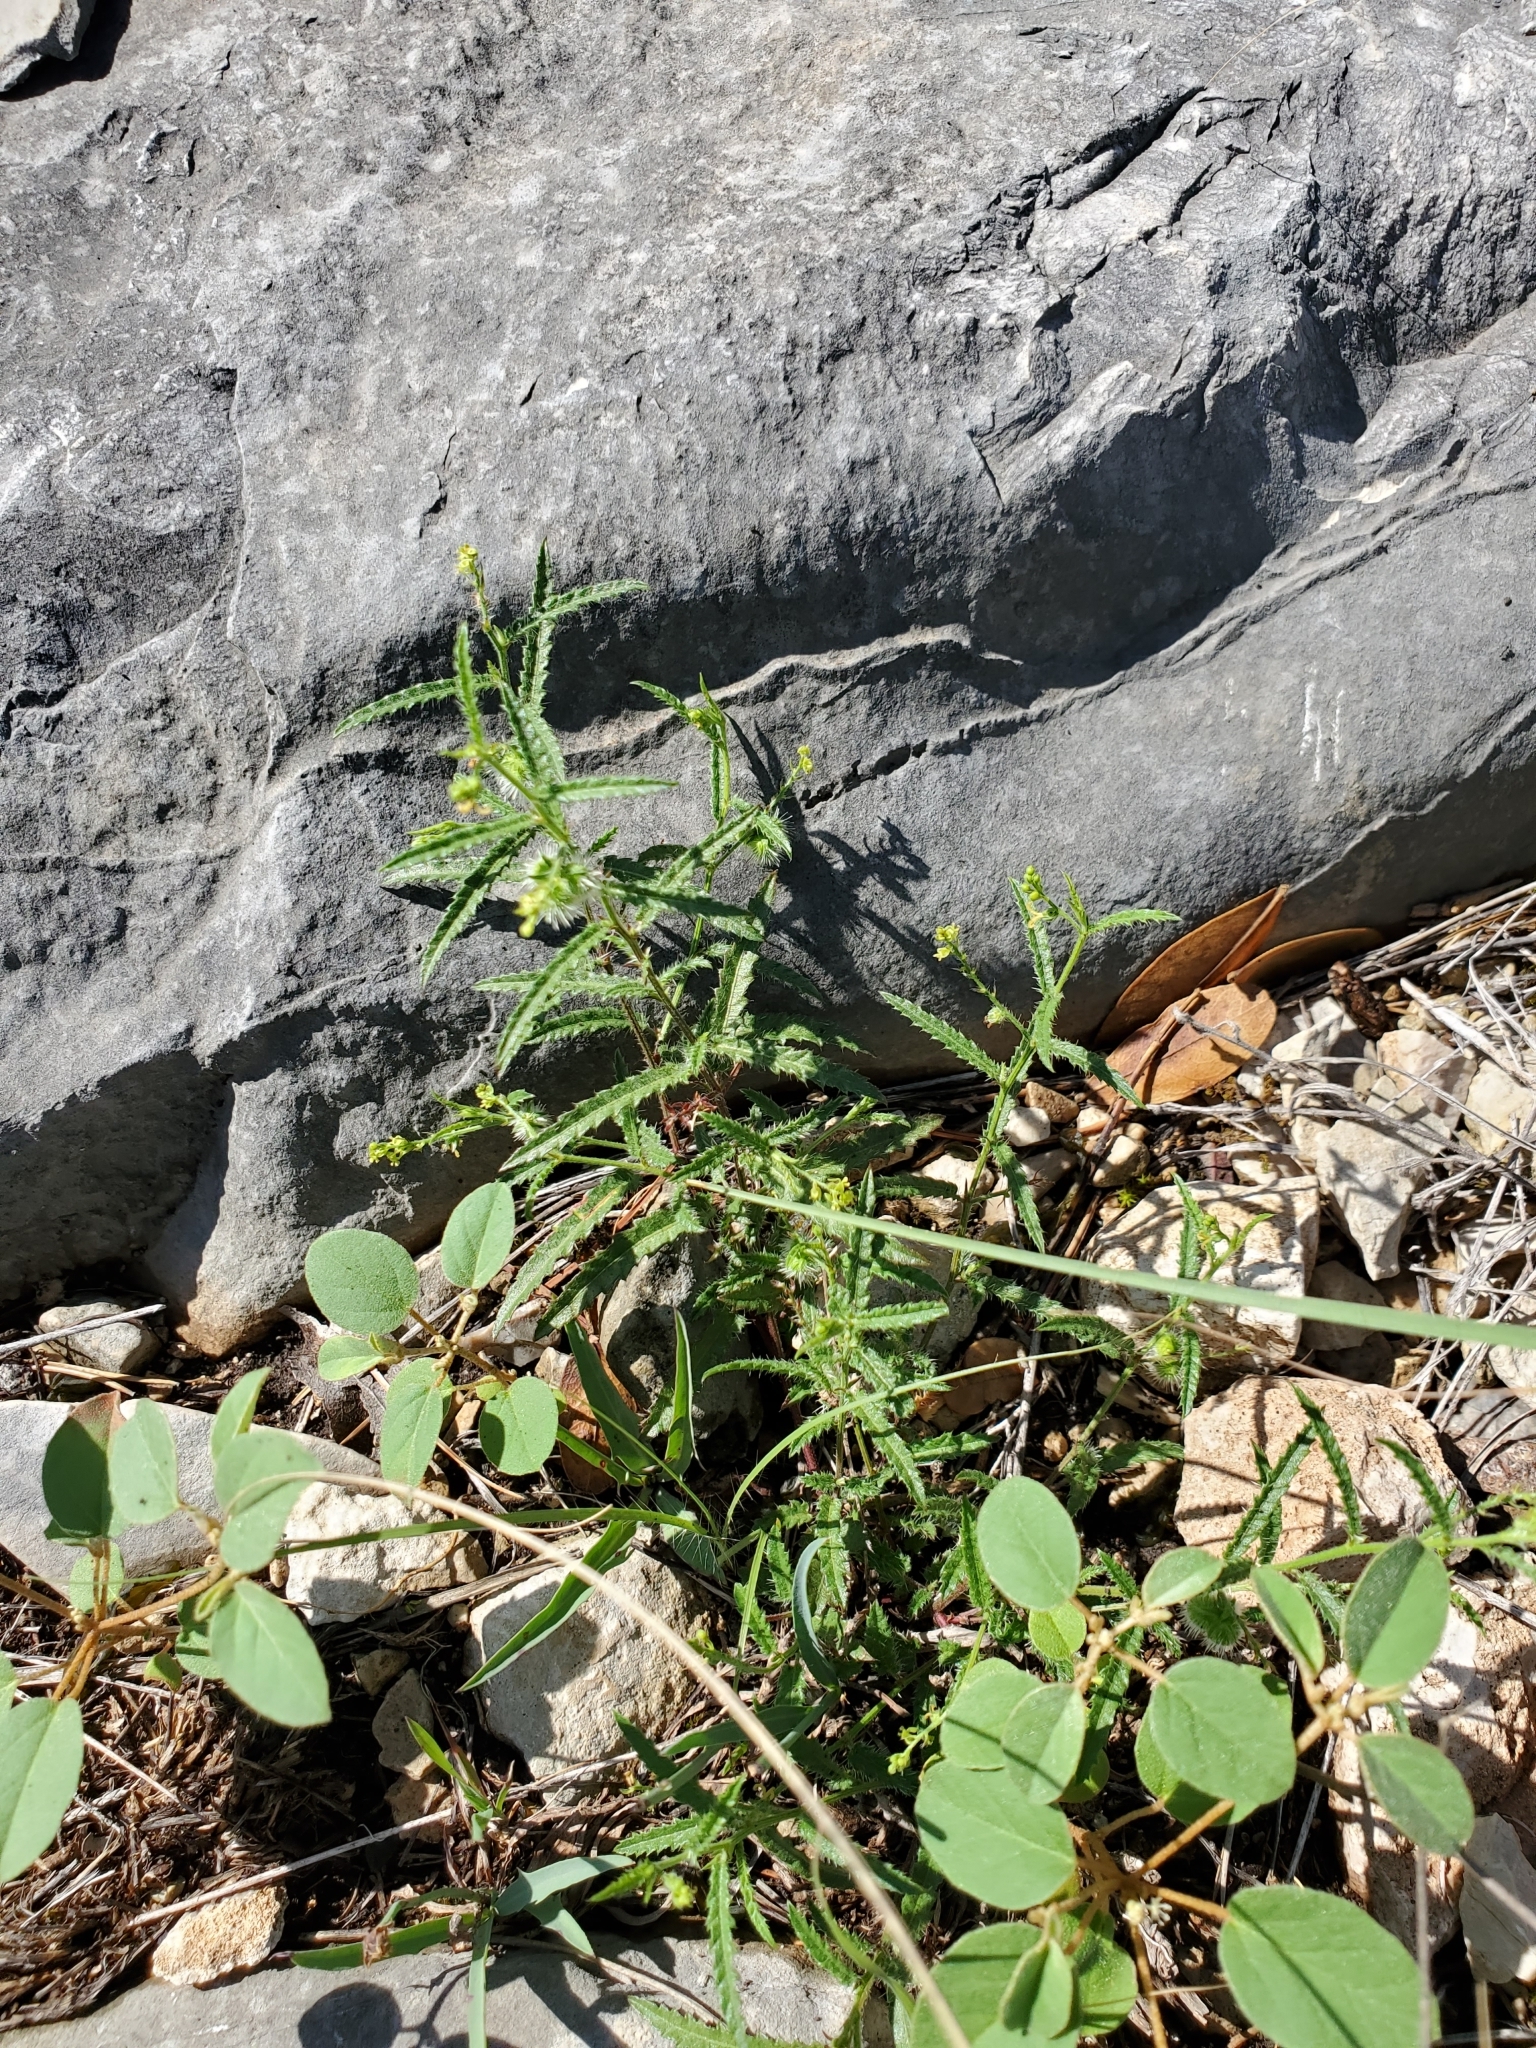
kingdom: Plantae
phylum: Tracheophyta
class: Magnoliopsida
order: Malpighiales
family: Euphorbiaceae
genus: Tragia
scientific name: Tragia ramosa
